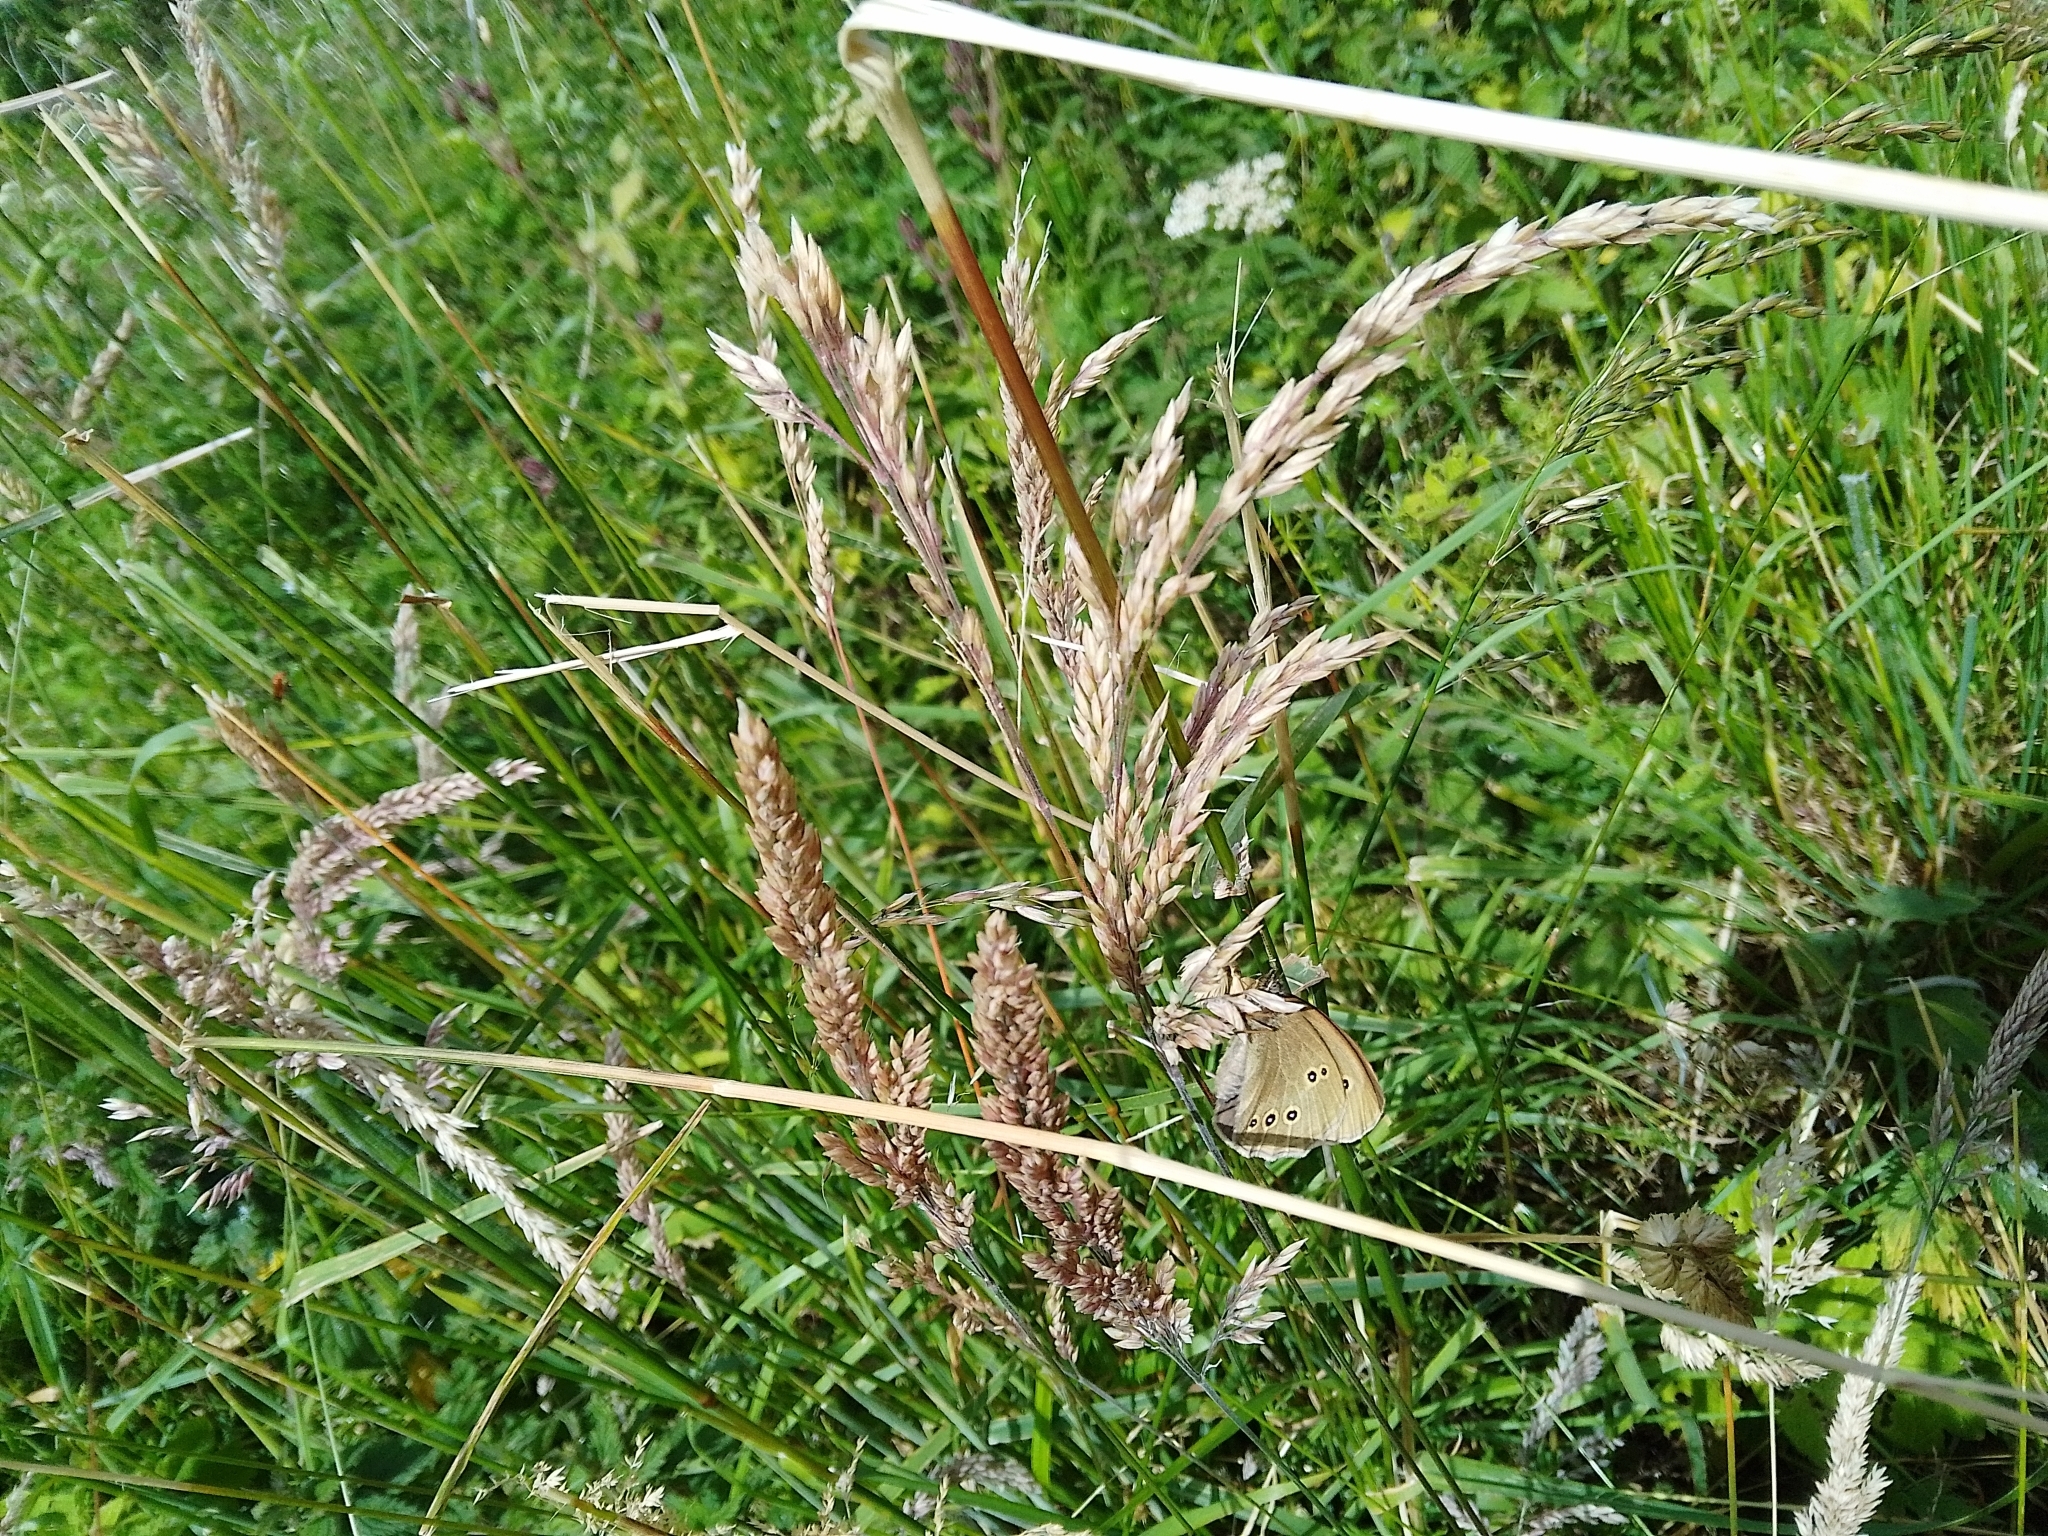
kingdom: Animalia
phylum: Arthropoda
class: Insecta
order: Lepidoptera
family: Nymphalidae
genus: Aphantopus
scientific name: Aphantopus hyperantus
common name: Ringlet
